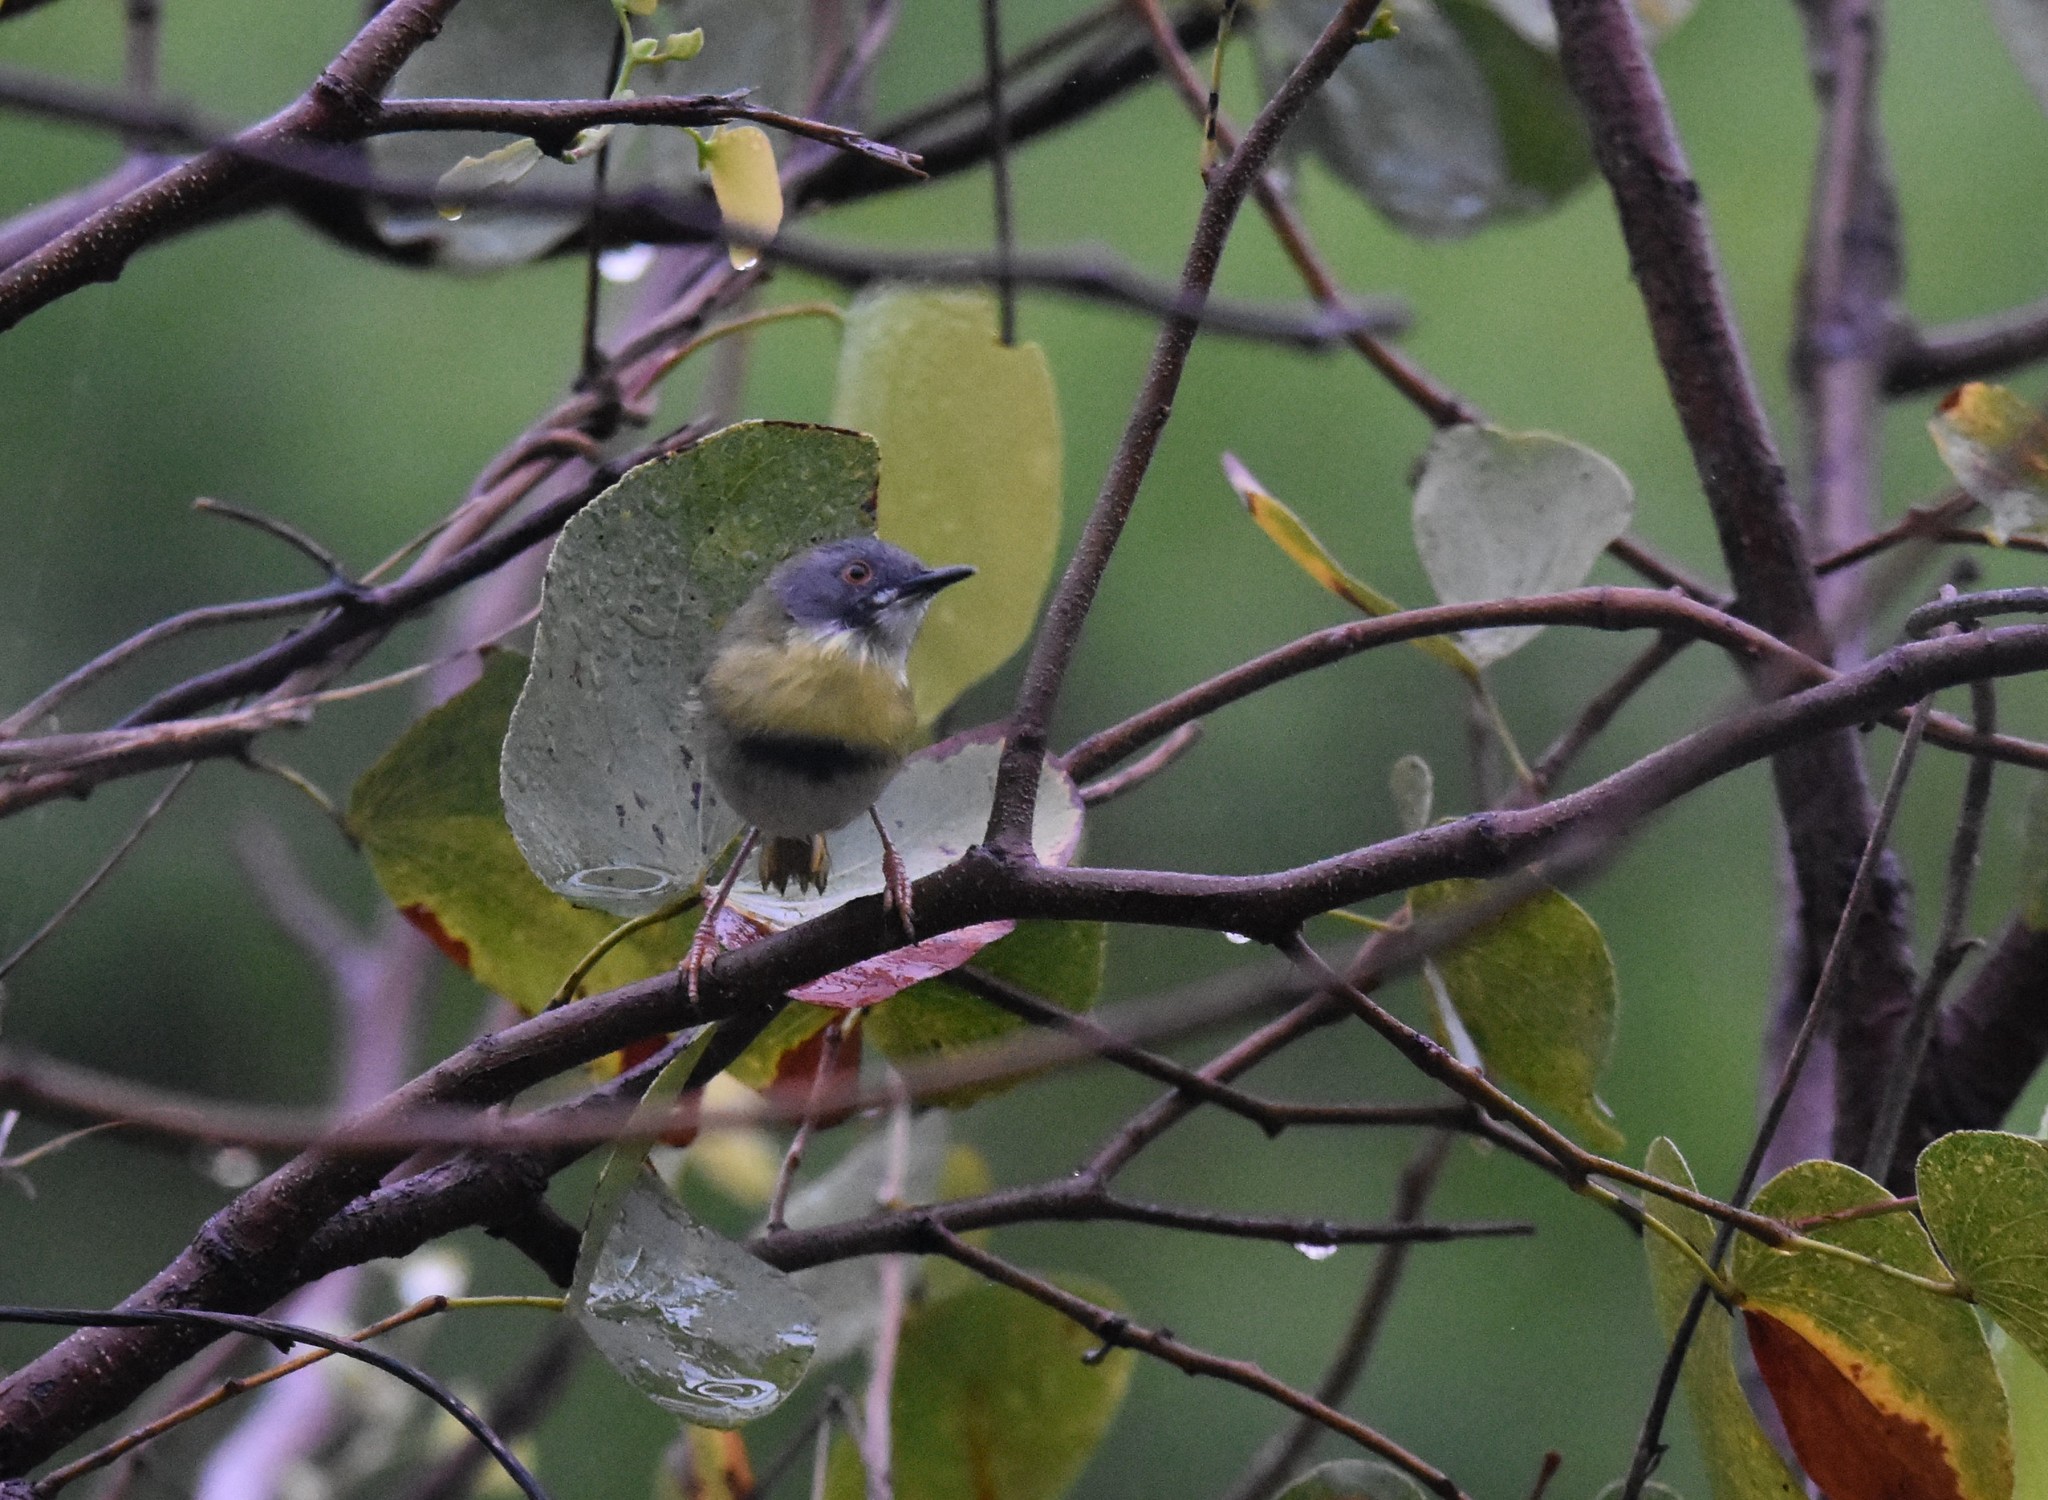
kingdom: Animalia
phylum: Chordata
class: Aves
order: Passeriformes
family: Cisticolidae
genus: Apalis
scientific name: Apalis flavida
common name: Yellow-breasted apalis
